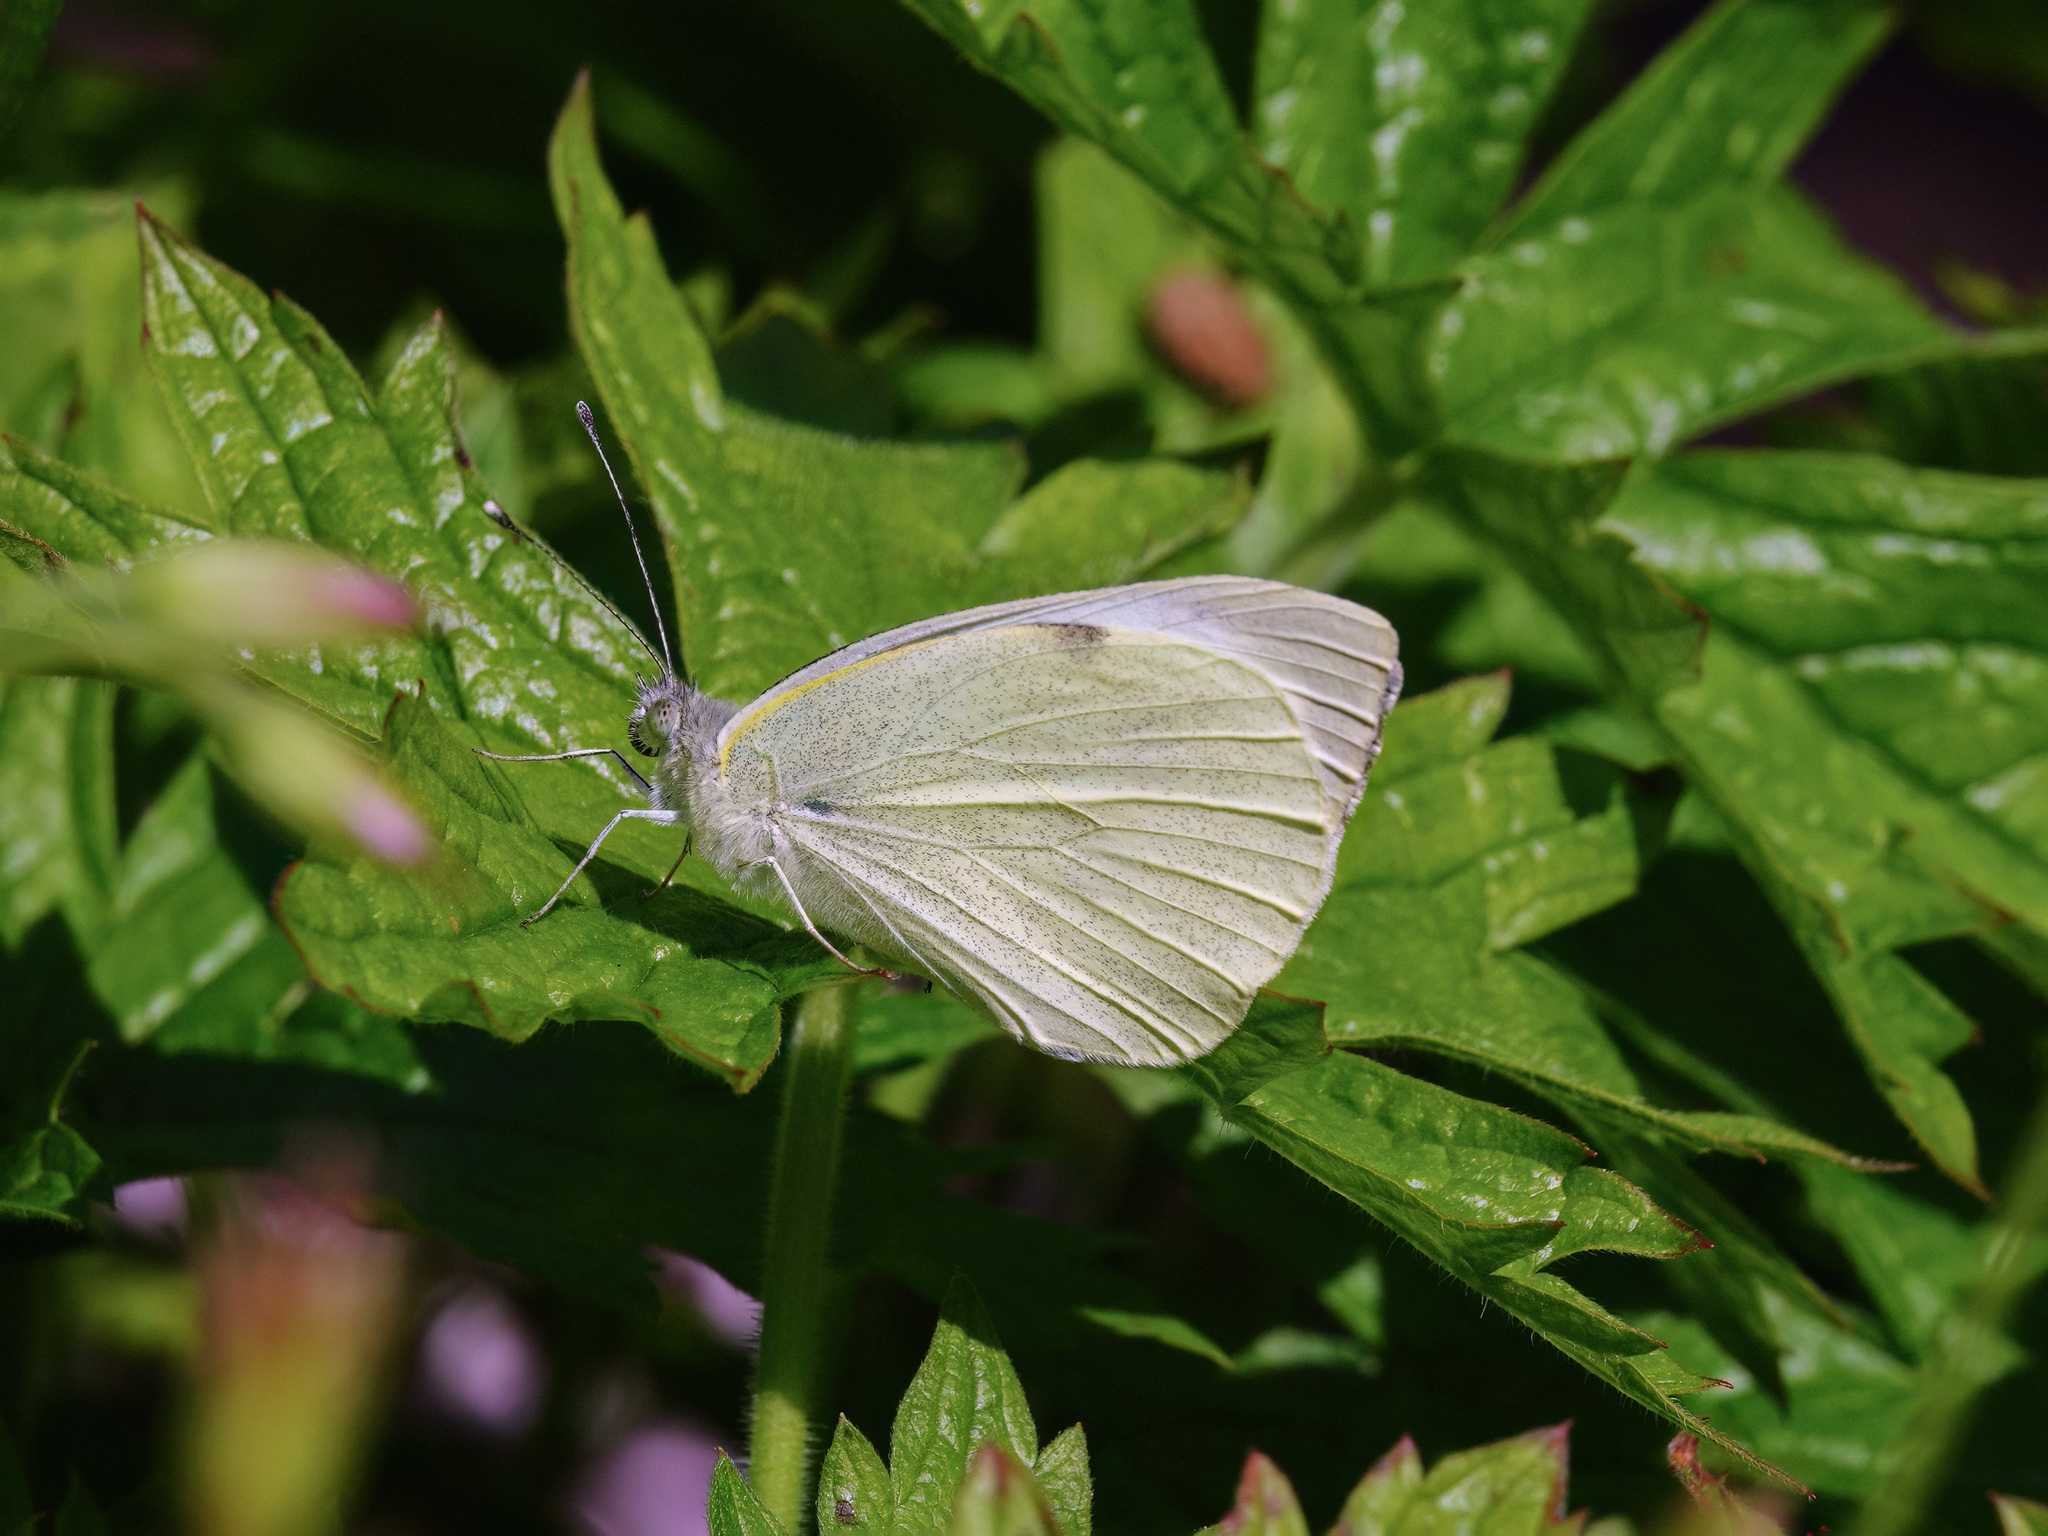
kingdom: Animalia
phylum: Arthropoda
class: Insecta
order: Lepidoptera
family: Pieridae
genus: Pieris
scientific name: Pieris brassicae
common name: Large white
